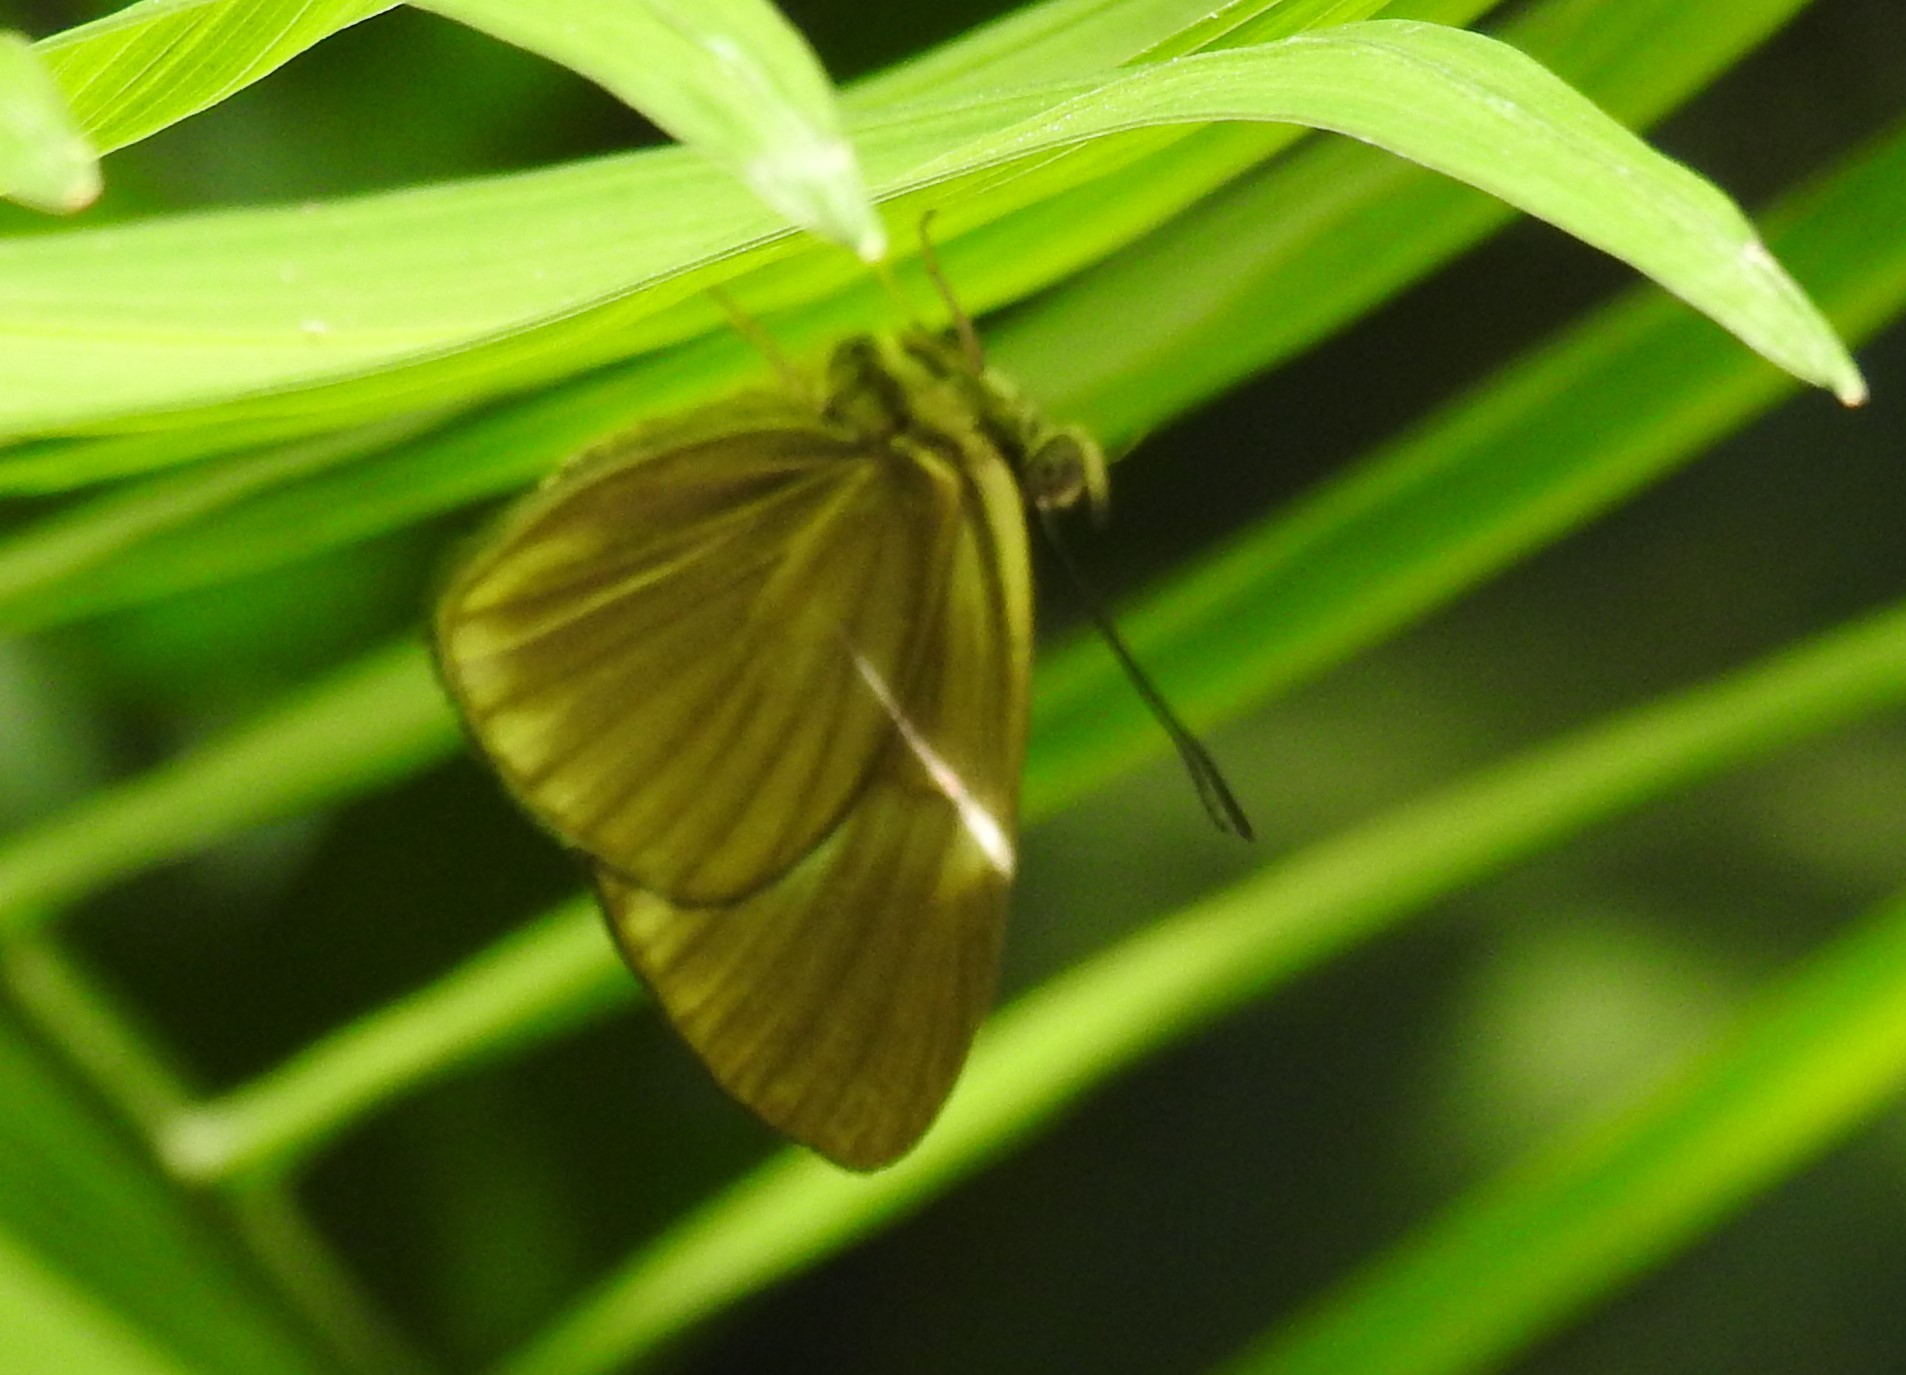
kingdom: Animalia
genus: Setabis
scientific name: Setabis lagus
